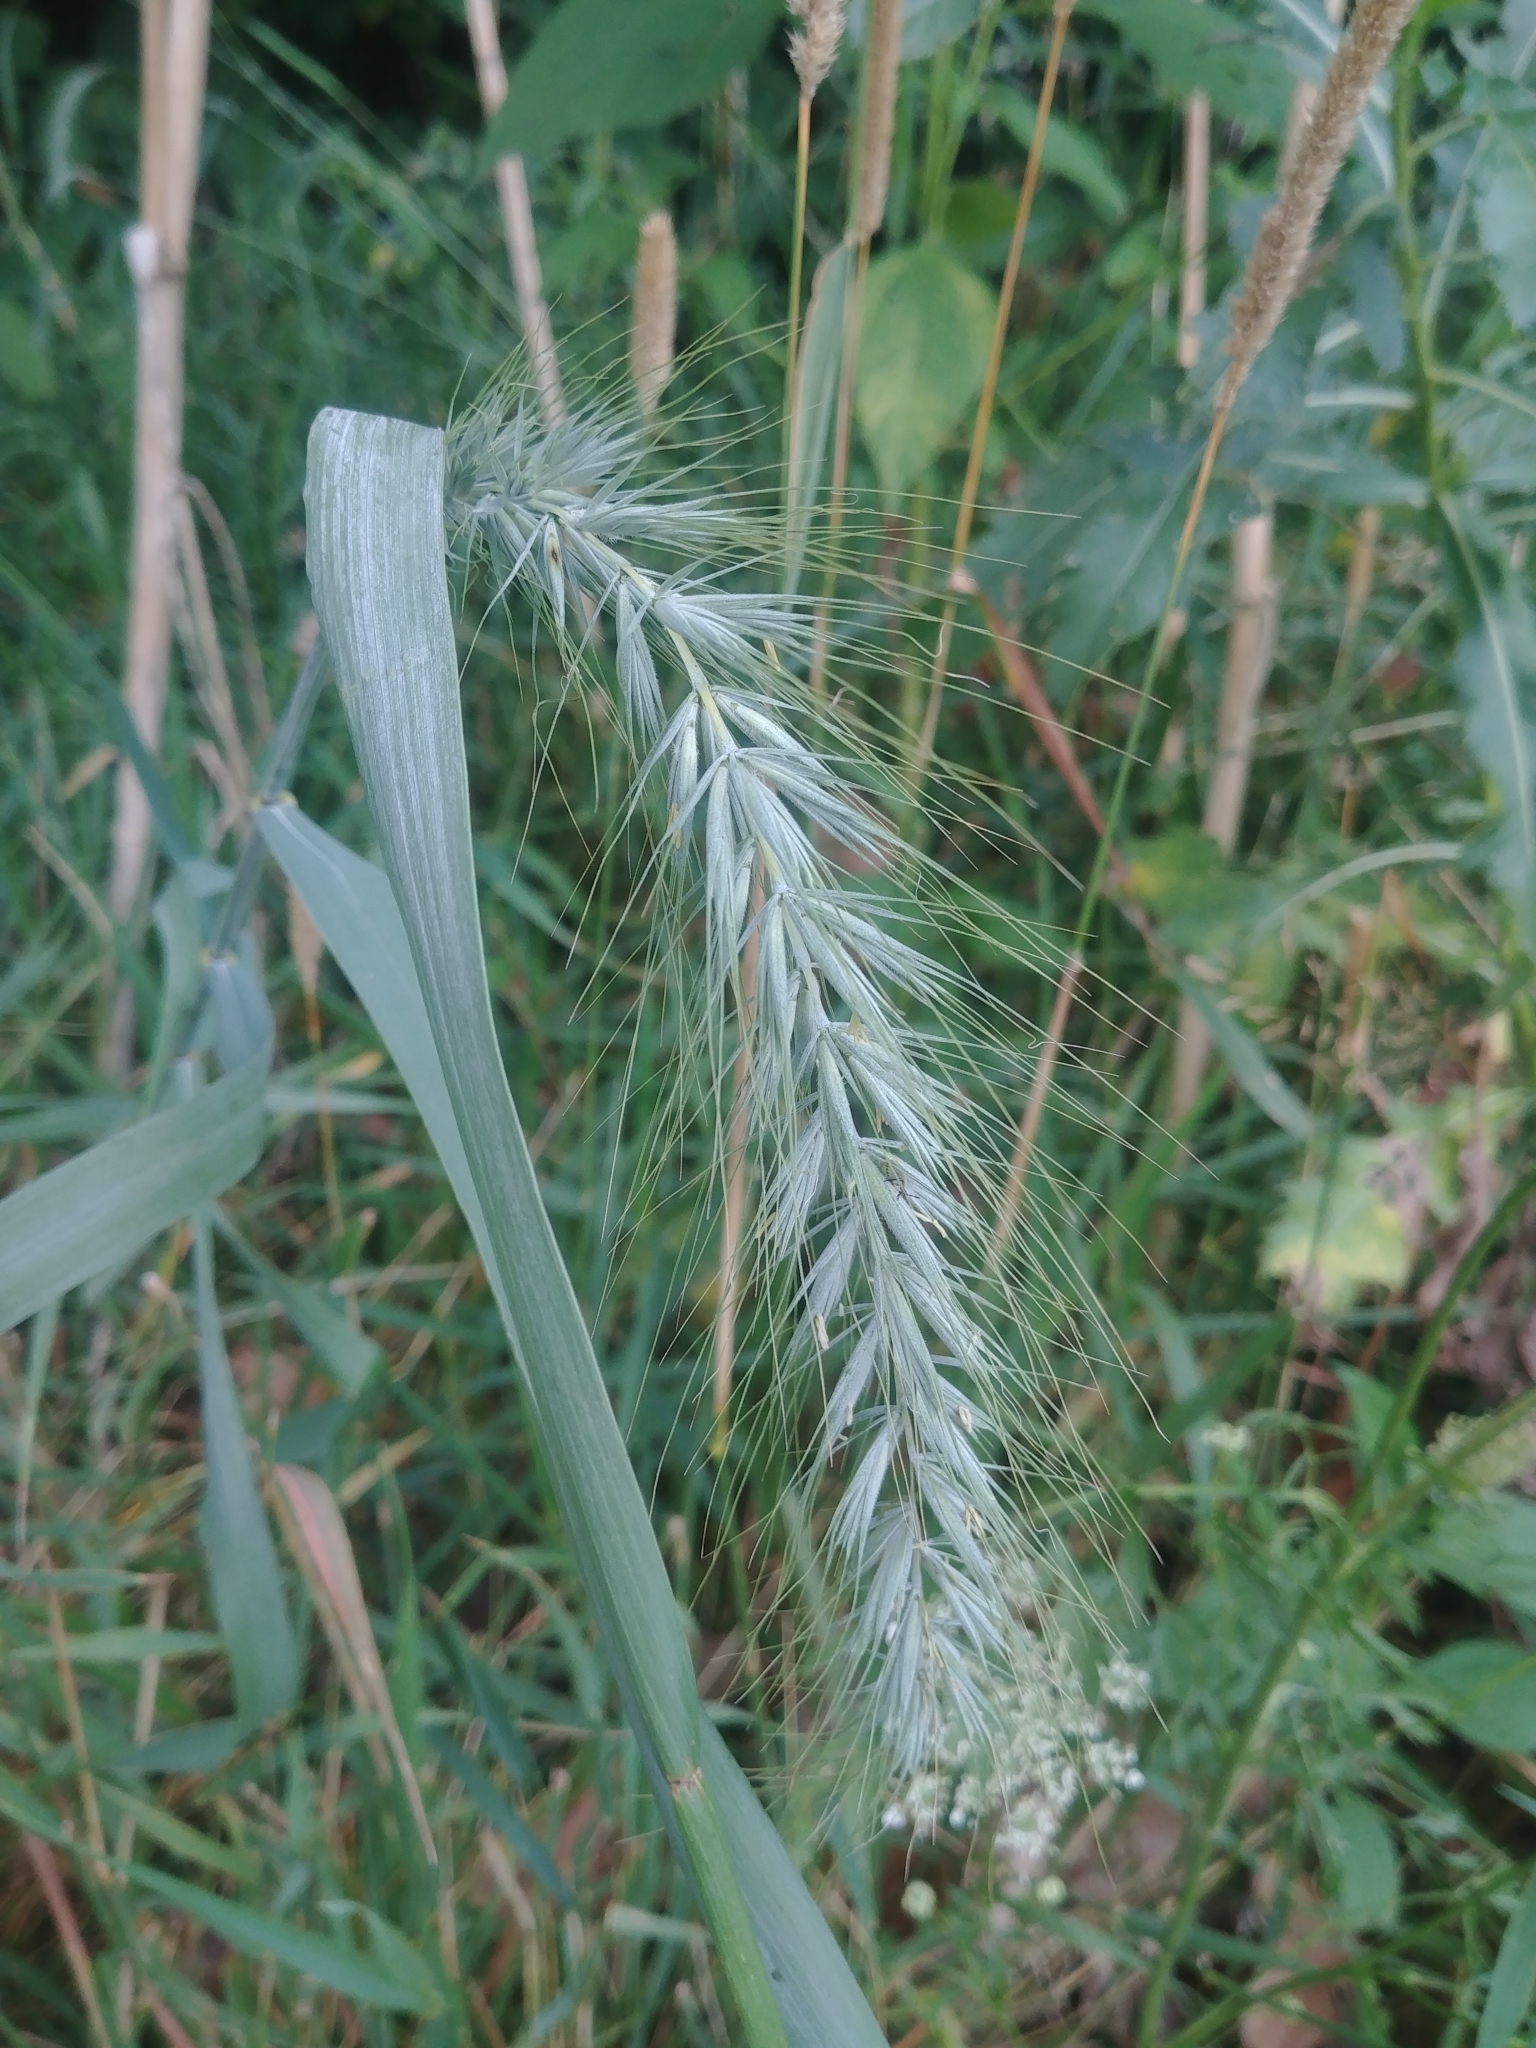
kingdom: Plantae
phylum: Tracheophyta
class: Liliopsida
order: Poales
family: Poaceae
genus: Elymus
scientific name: Elymus canadensis
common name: Canada wild rye
